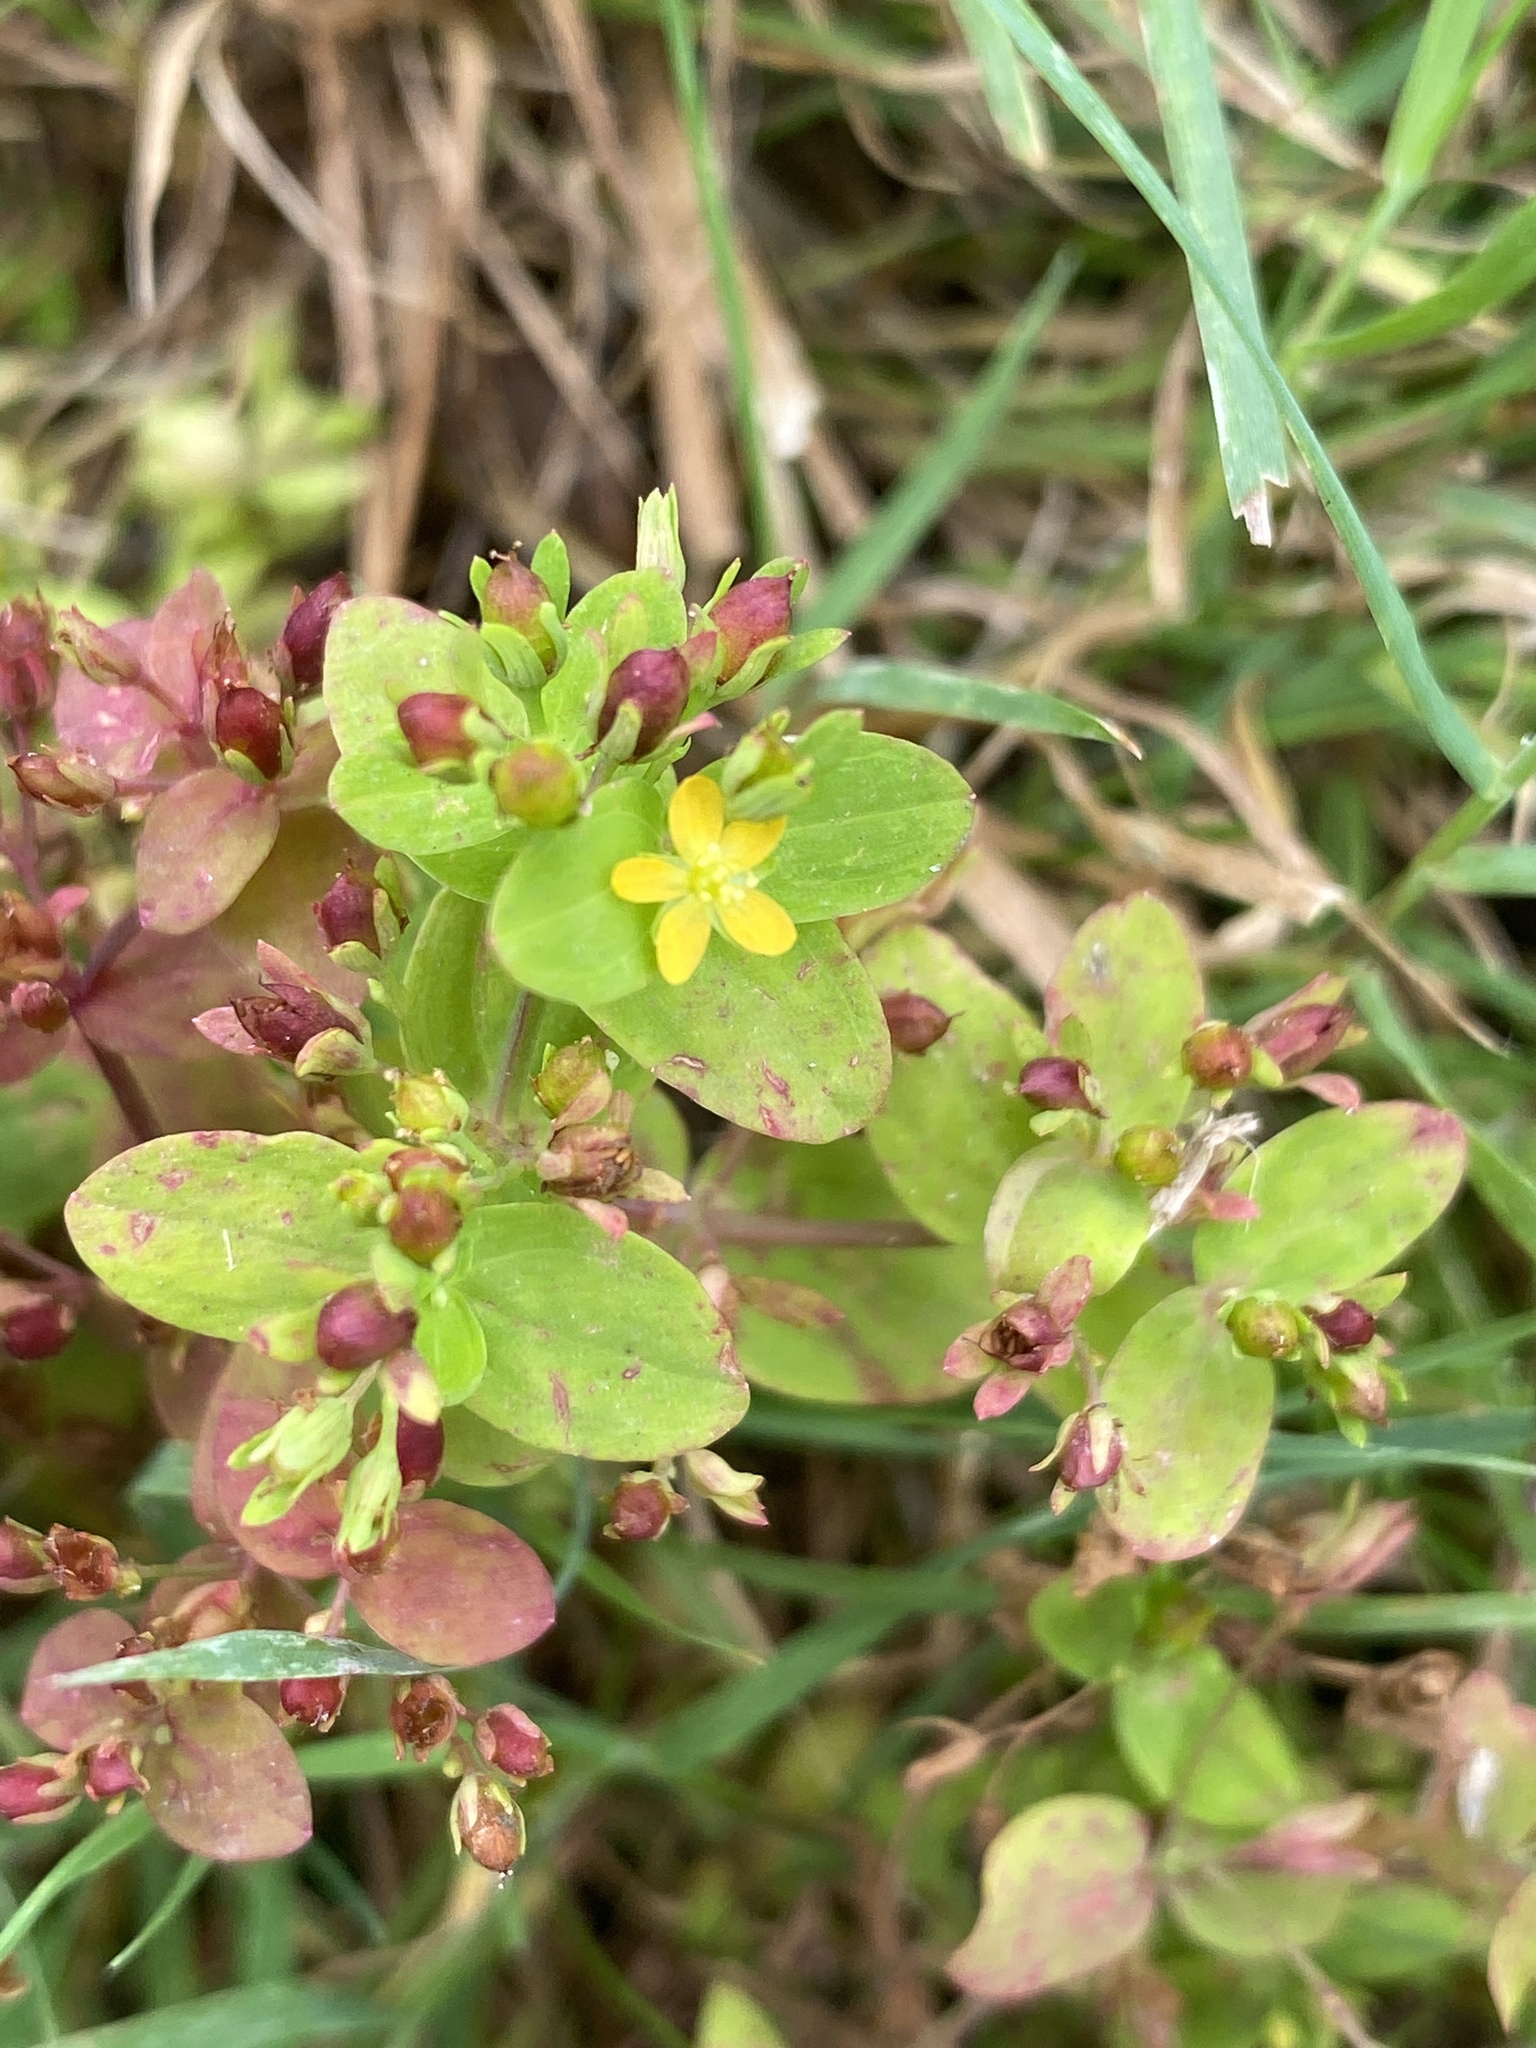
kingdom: Plantae
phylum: Tracheophyta
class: Magnoliopsida
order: Malpighiales
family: Hypericaceae
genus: Hypericum
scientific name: Hypericum mutilum
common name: Dwarf st. john's-wort
